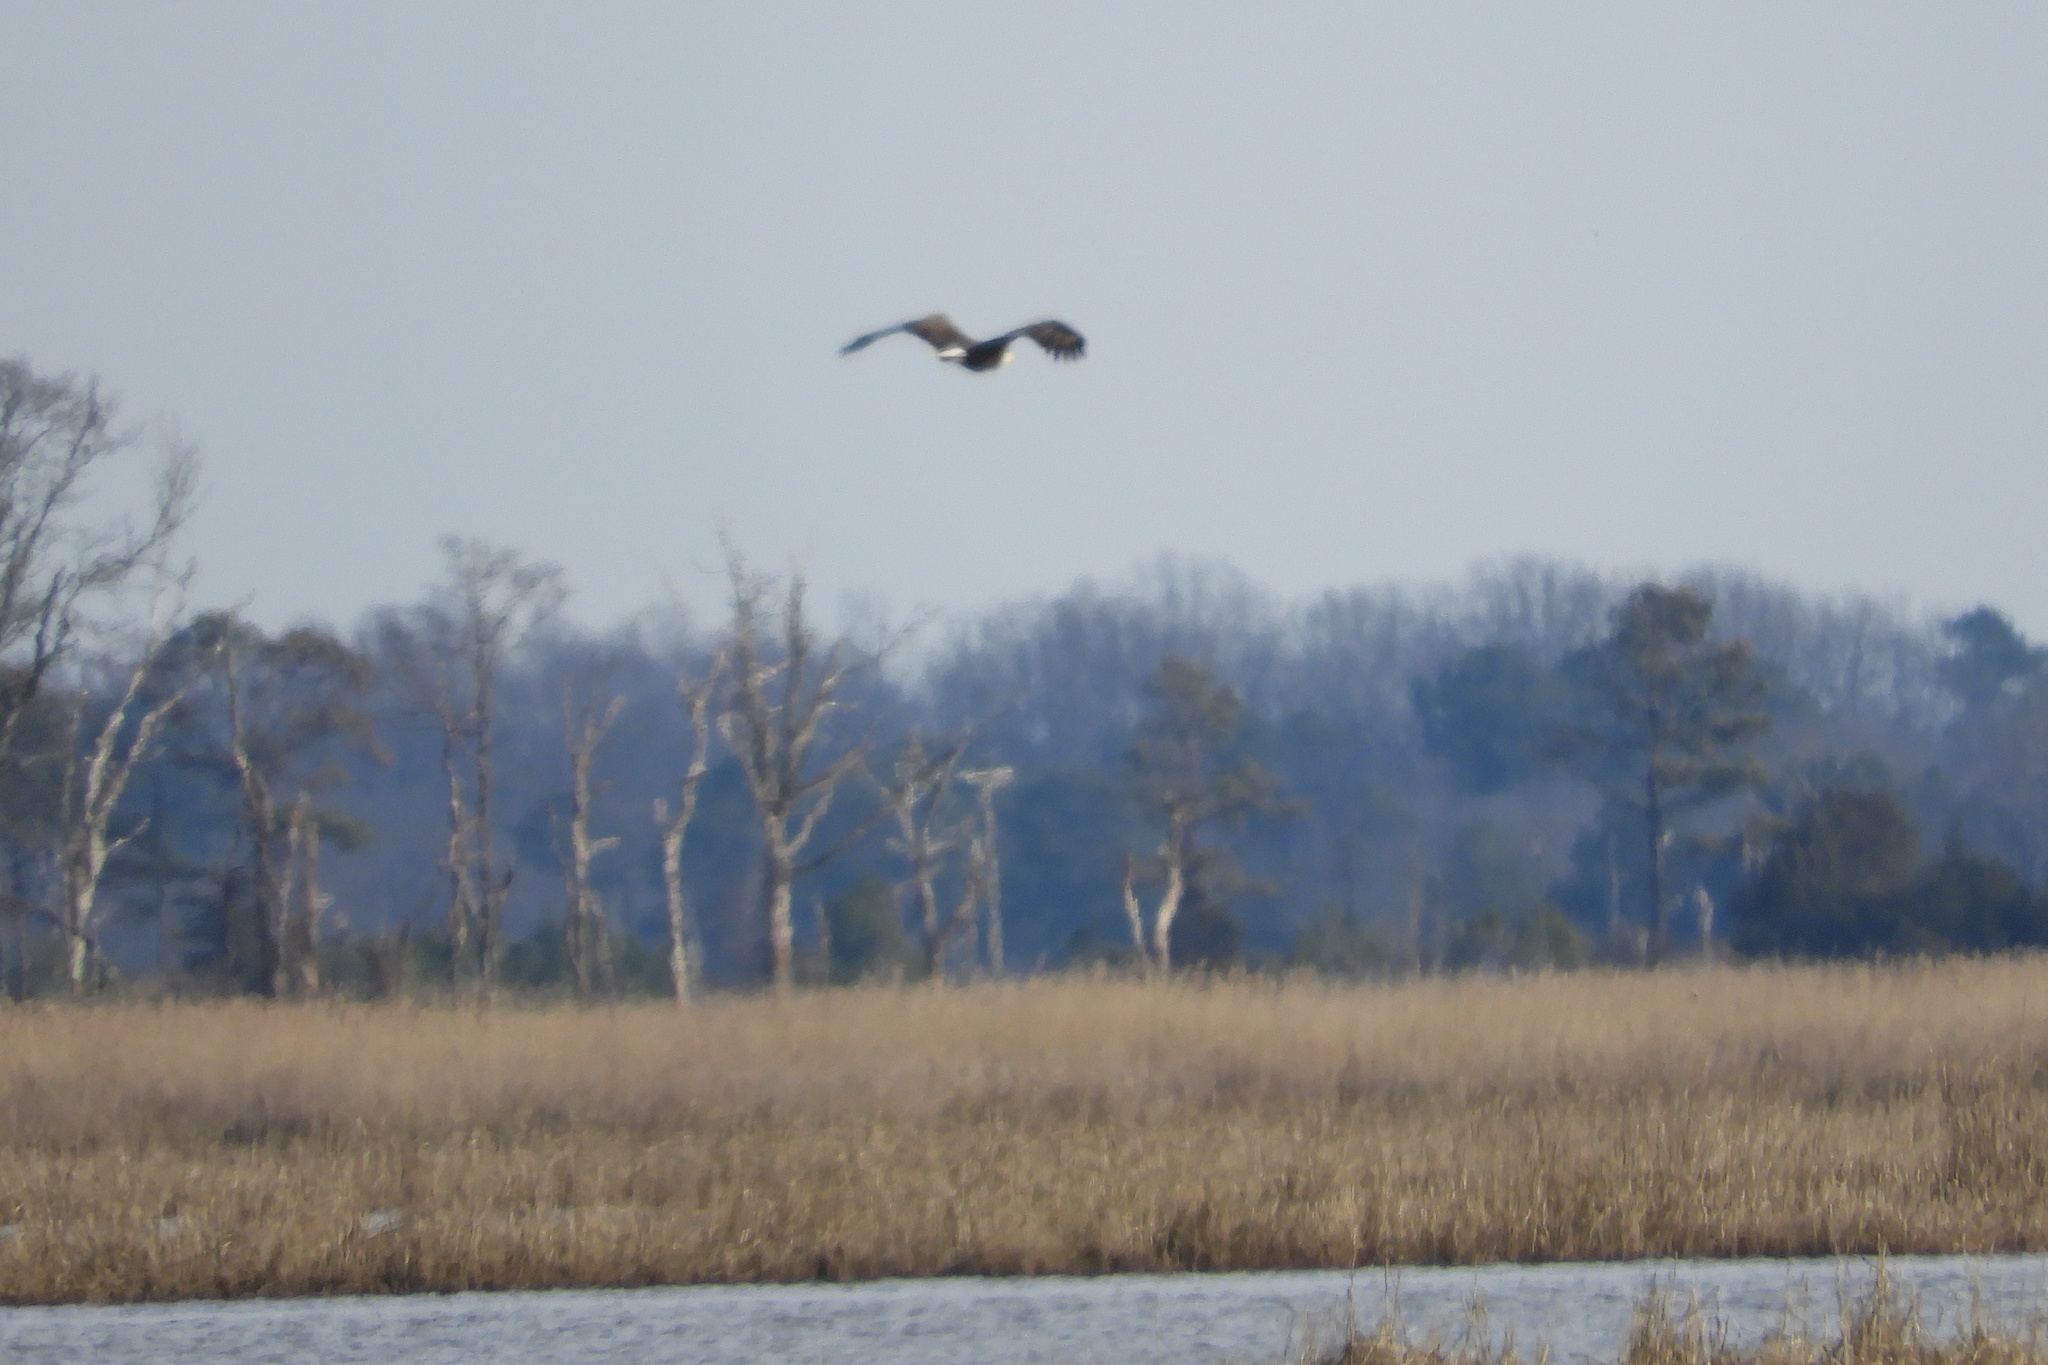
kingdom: Animalia
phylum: Chordata
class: Aves
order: Accipitriformes
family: Accipitridae
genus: Haliaeetus
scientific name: Haliaeetus leucocephalus
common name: Bald eagle
